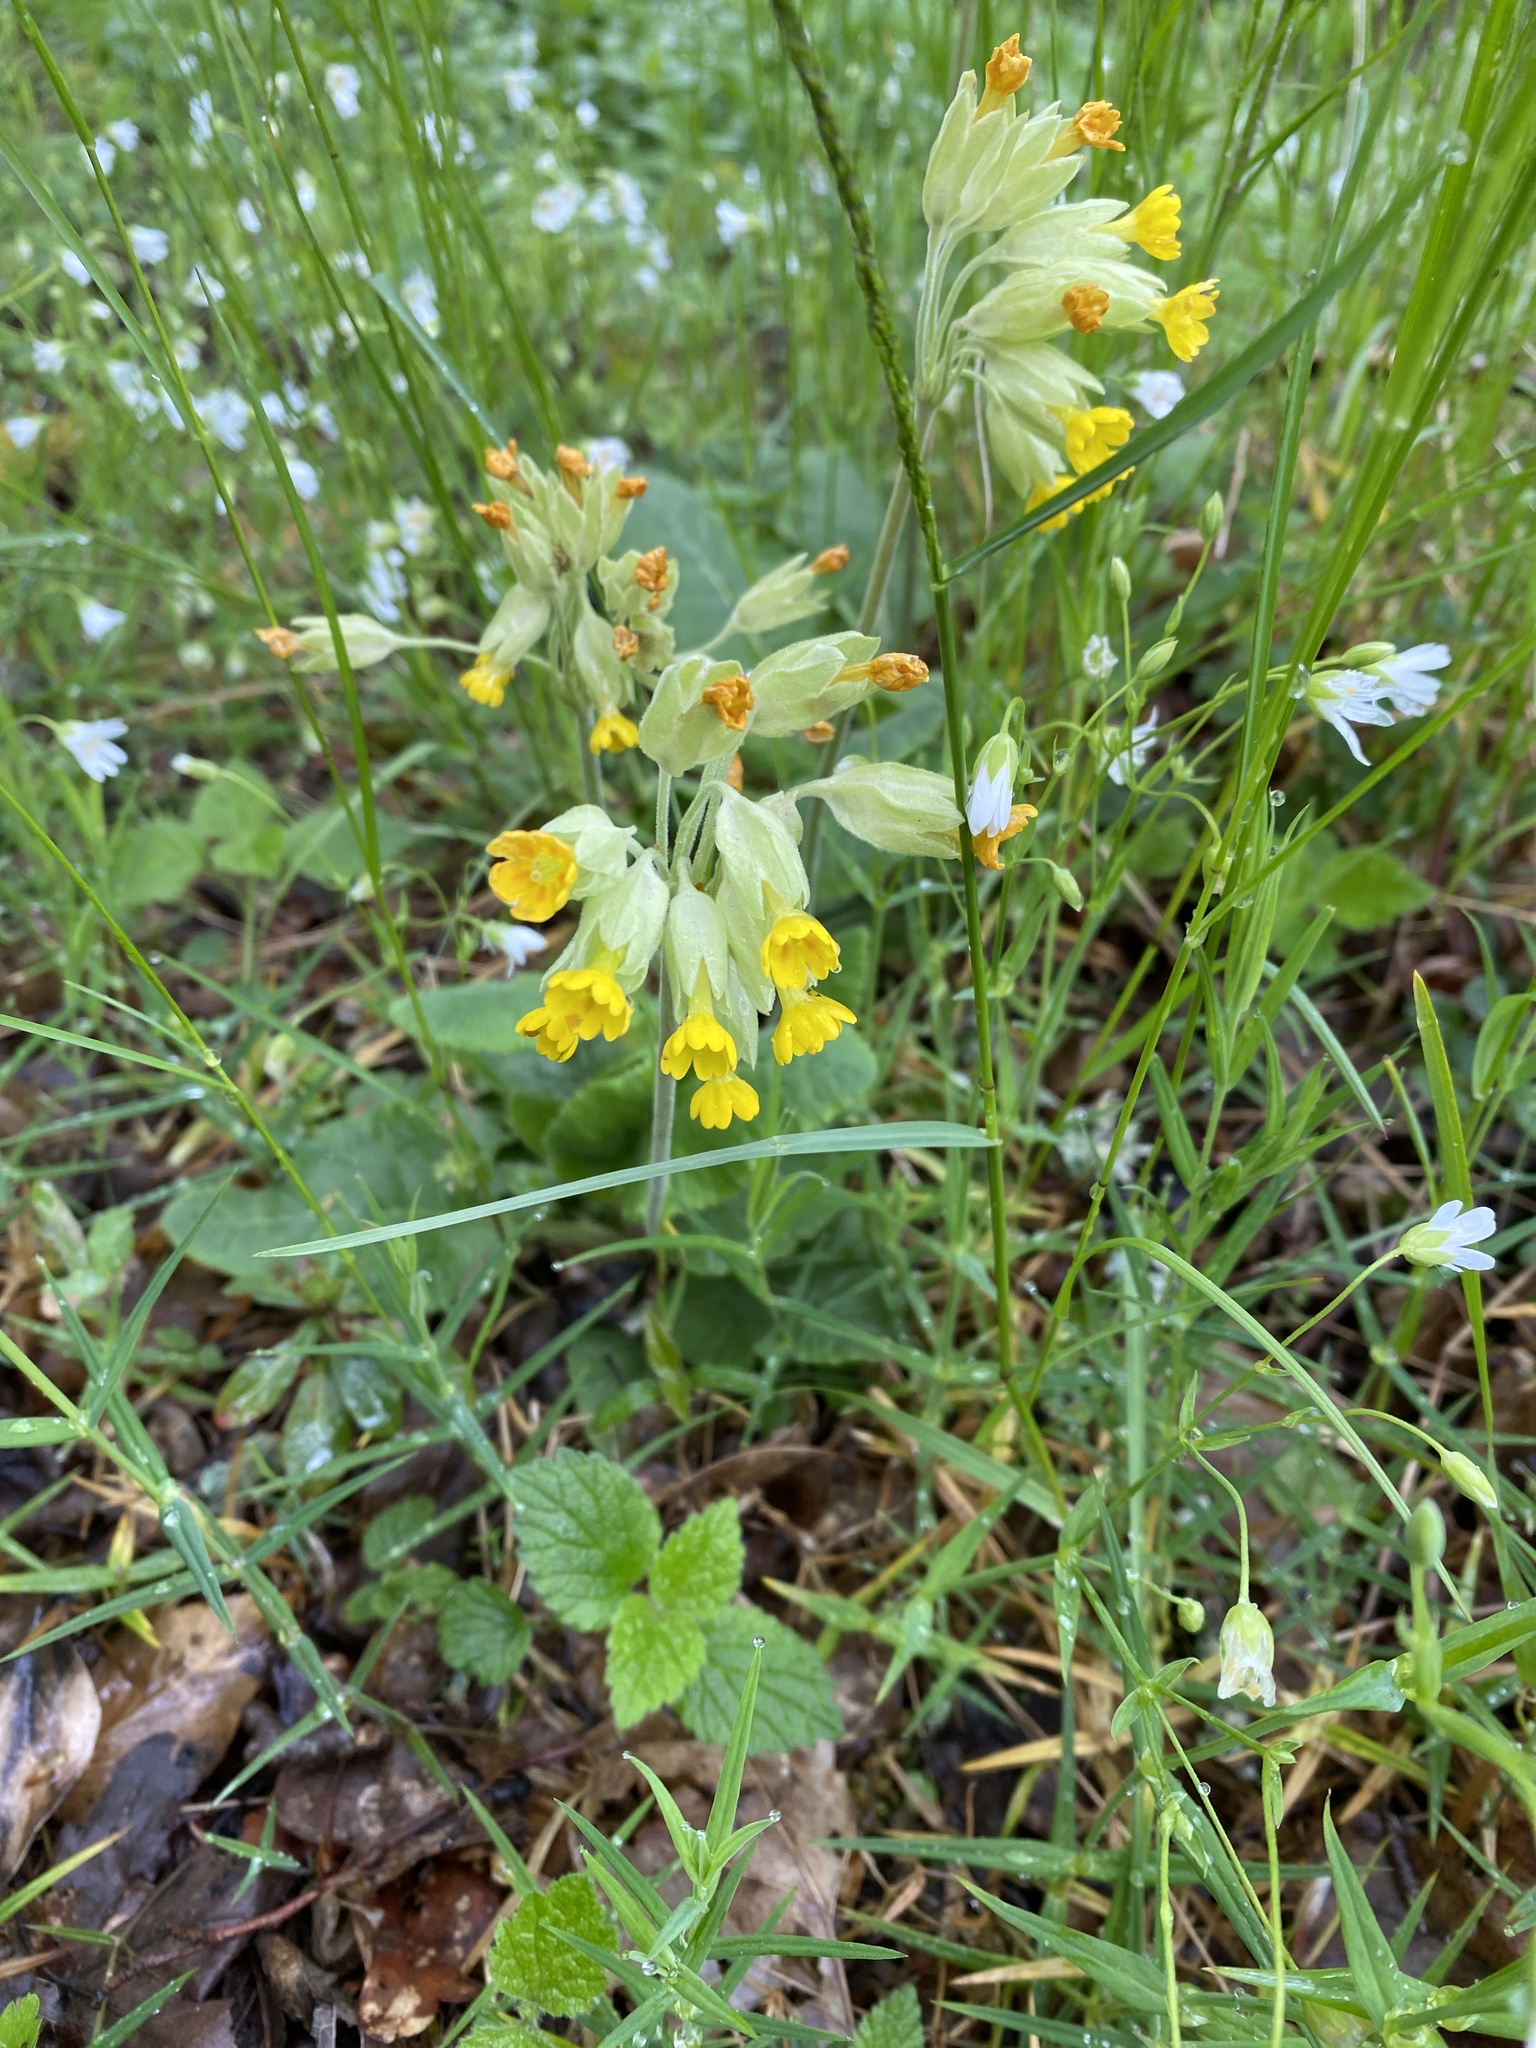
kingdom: Plantae
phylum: Tracheophyta
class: Magnoliopsida
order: Ericales
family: Primulaceae
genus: Primula
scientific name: Primula veris
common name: Cowslip
